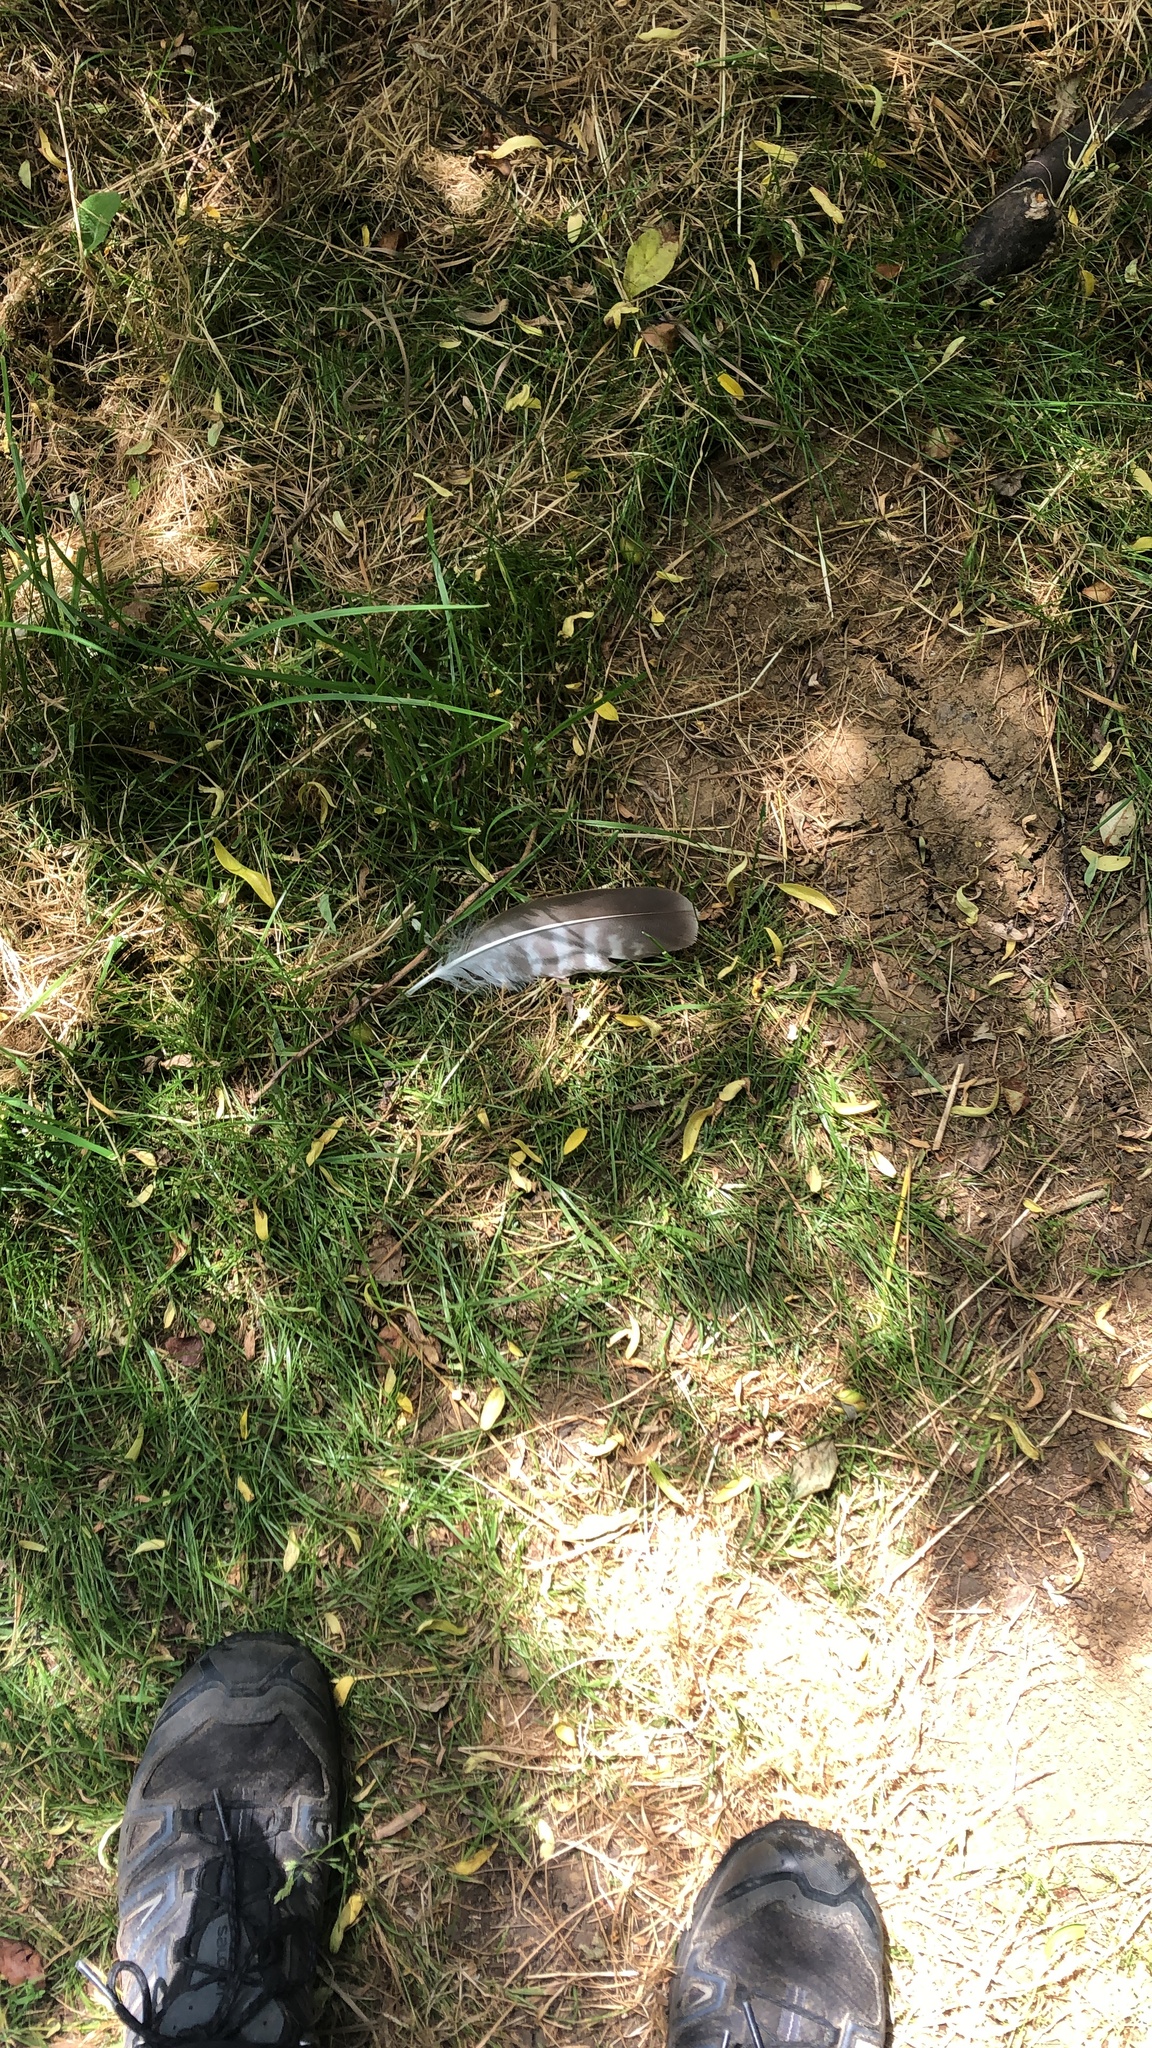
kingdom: Animalia
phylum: Chordata
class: Aves
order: Accipitriformes
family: Accipitridae
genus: Buteo
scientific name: Buteo buteo
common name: Common buzzard
